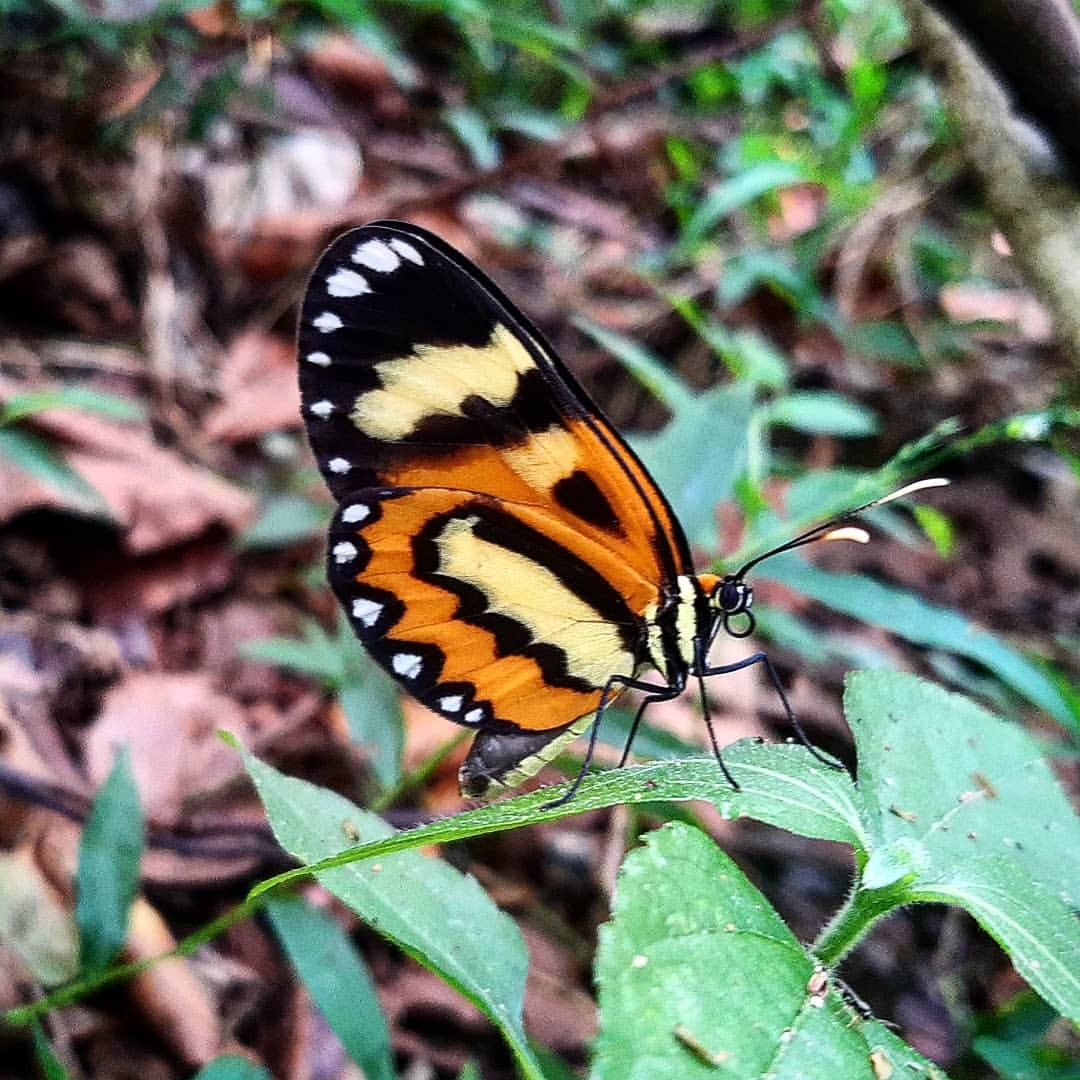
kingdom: Animalia
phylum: Arthropoda
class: Insecta
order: Lepidoptera
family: Nymphalidae
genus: Placidina
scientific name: Placidina euryanassa
